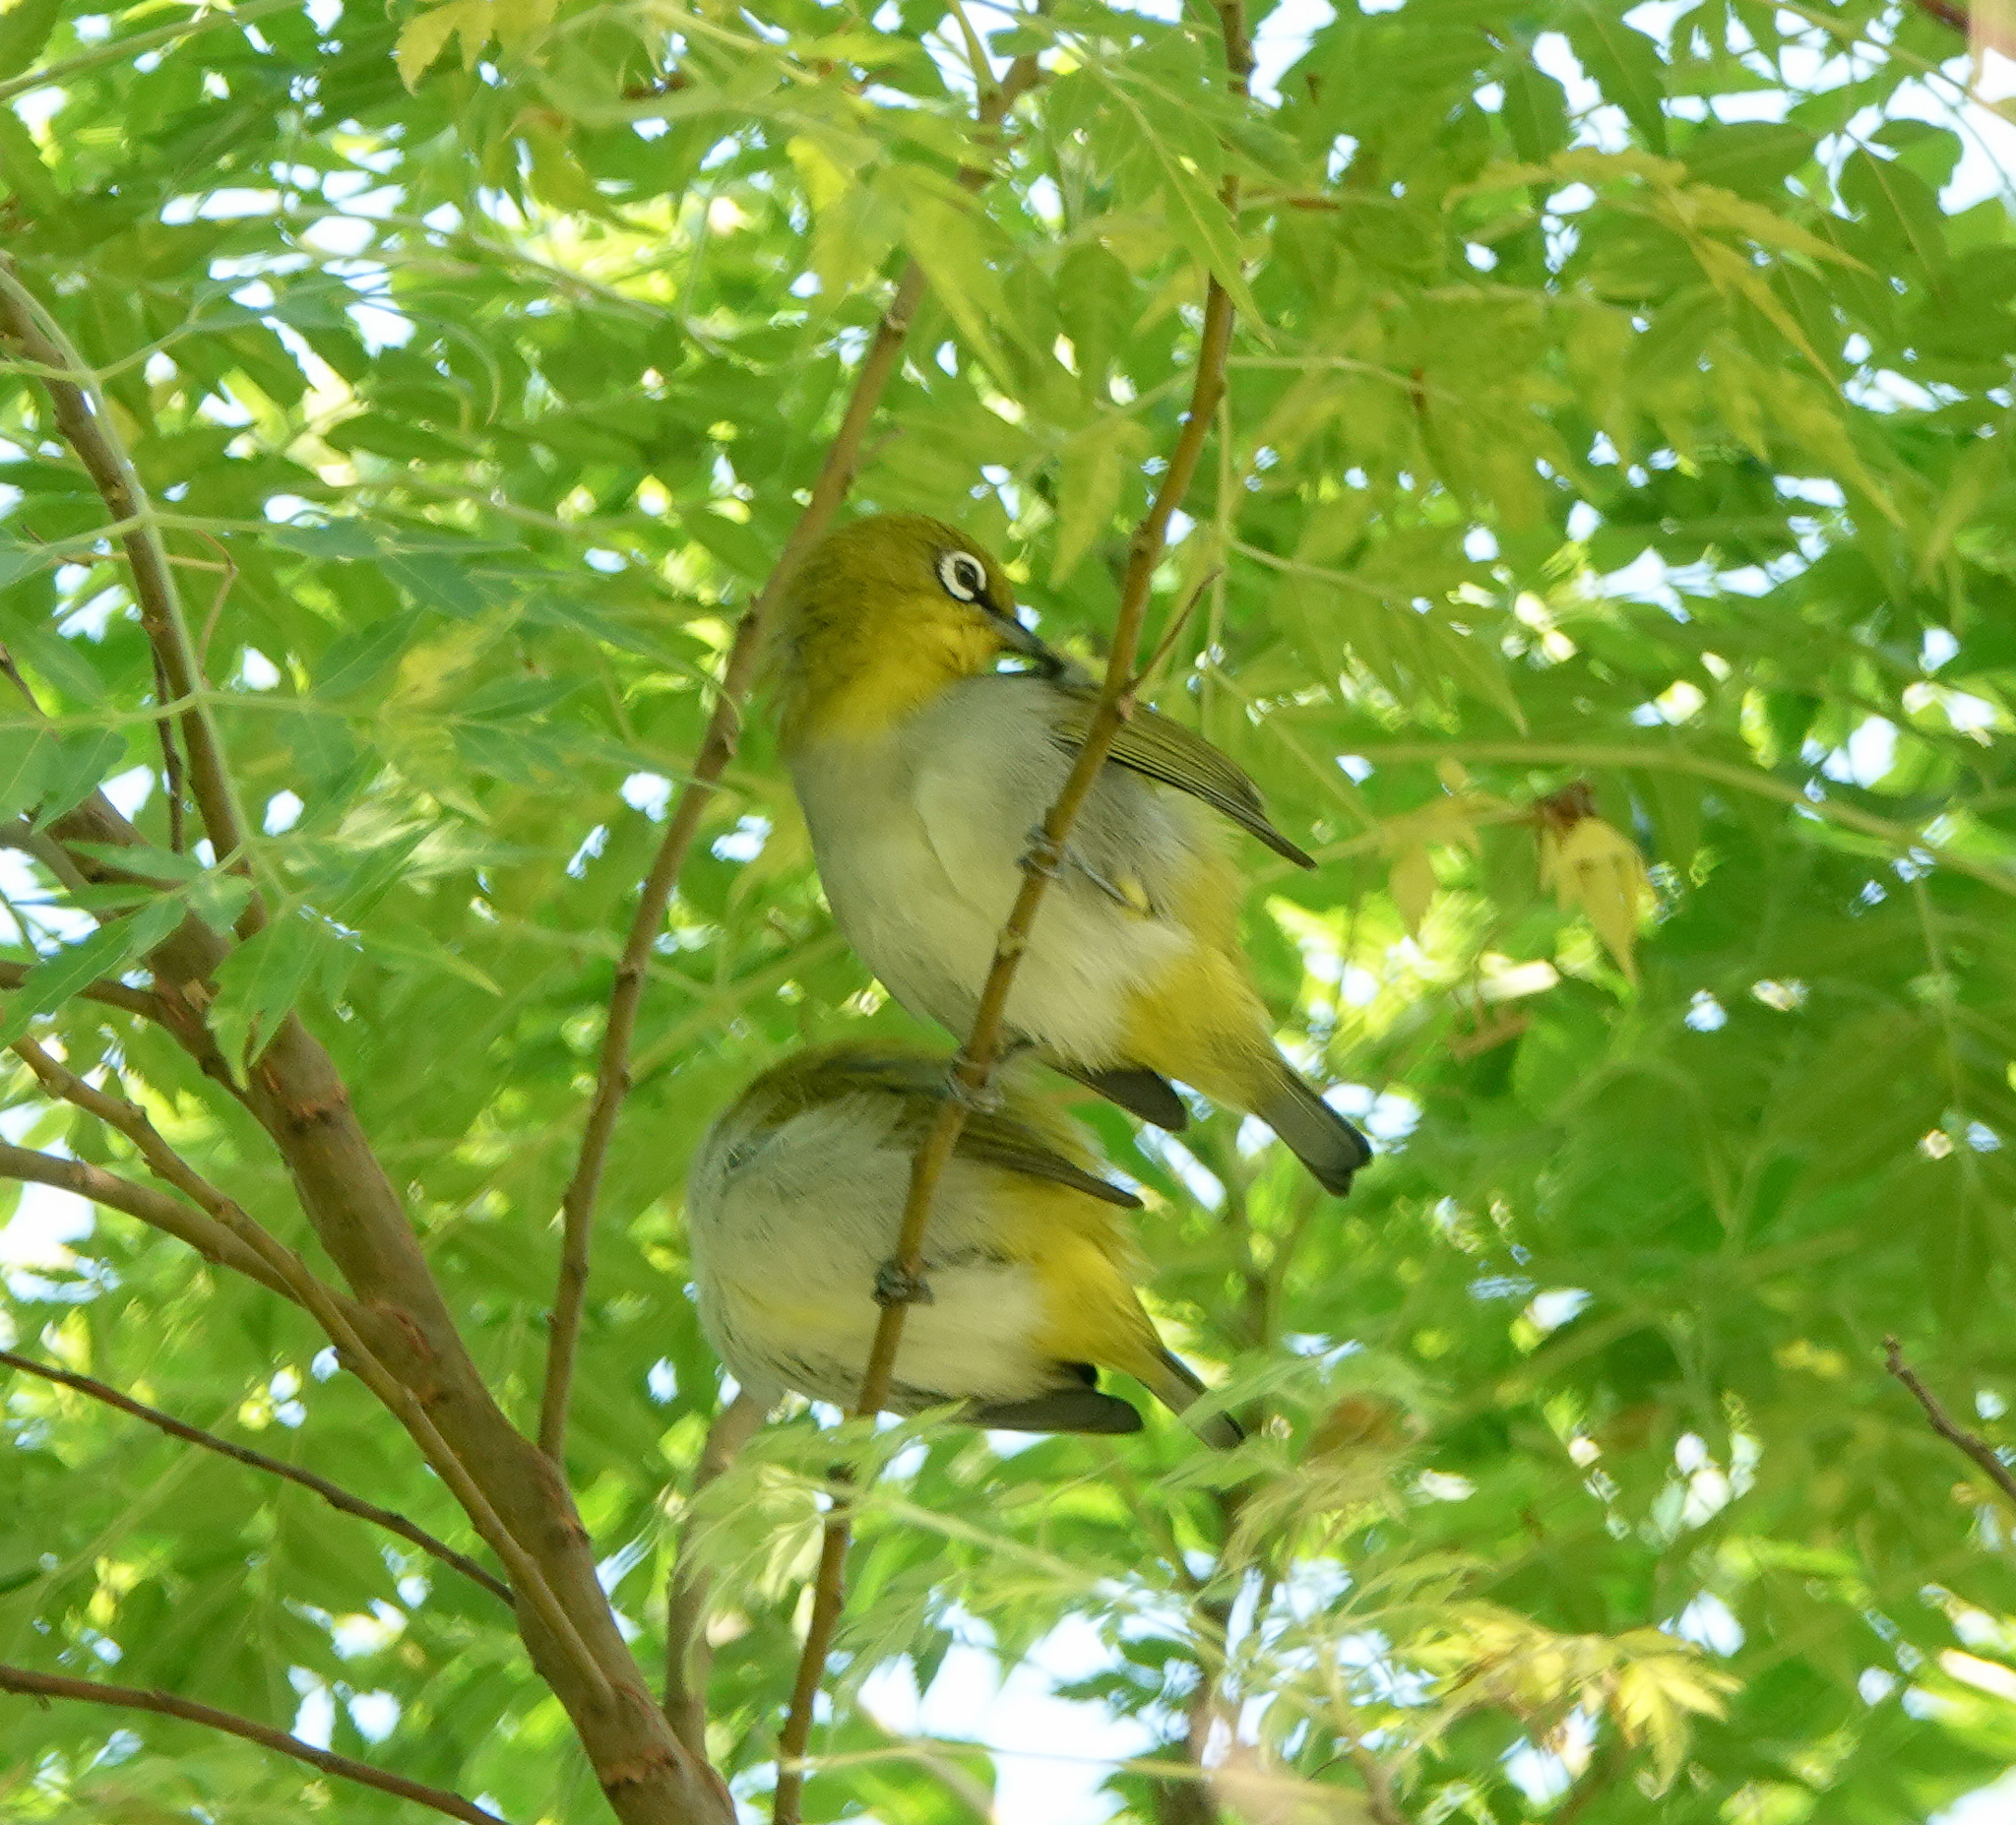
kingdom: Animalia
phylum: Chordata
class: Aves
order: Passeriformes
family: Zosteropidae
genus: Zosterops
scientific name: Zosterops palpebrosus
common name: Oriental white-eye
